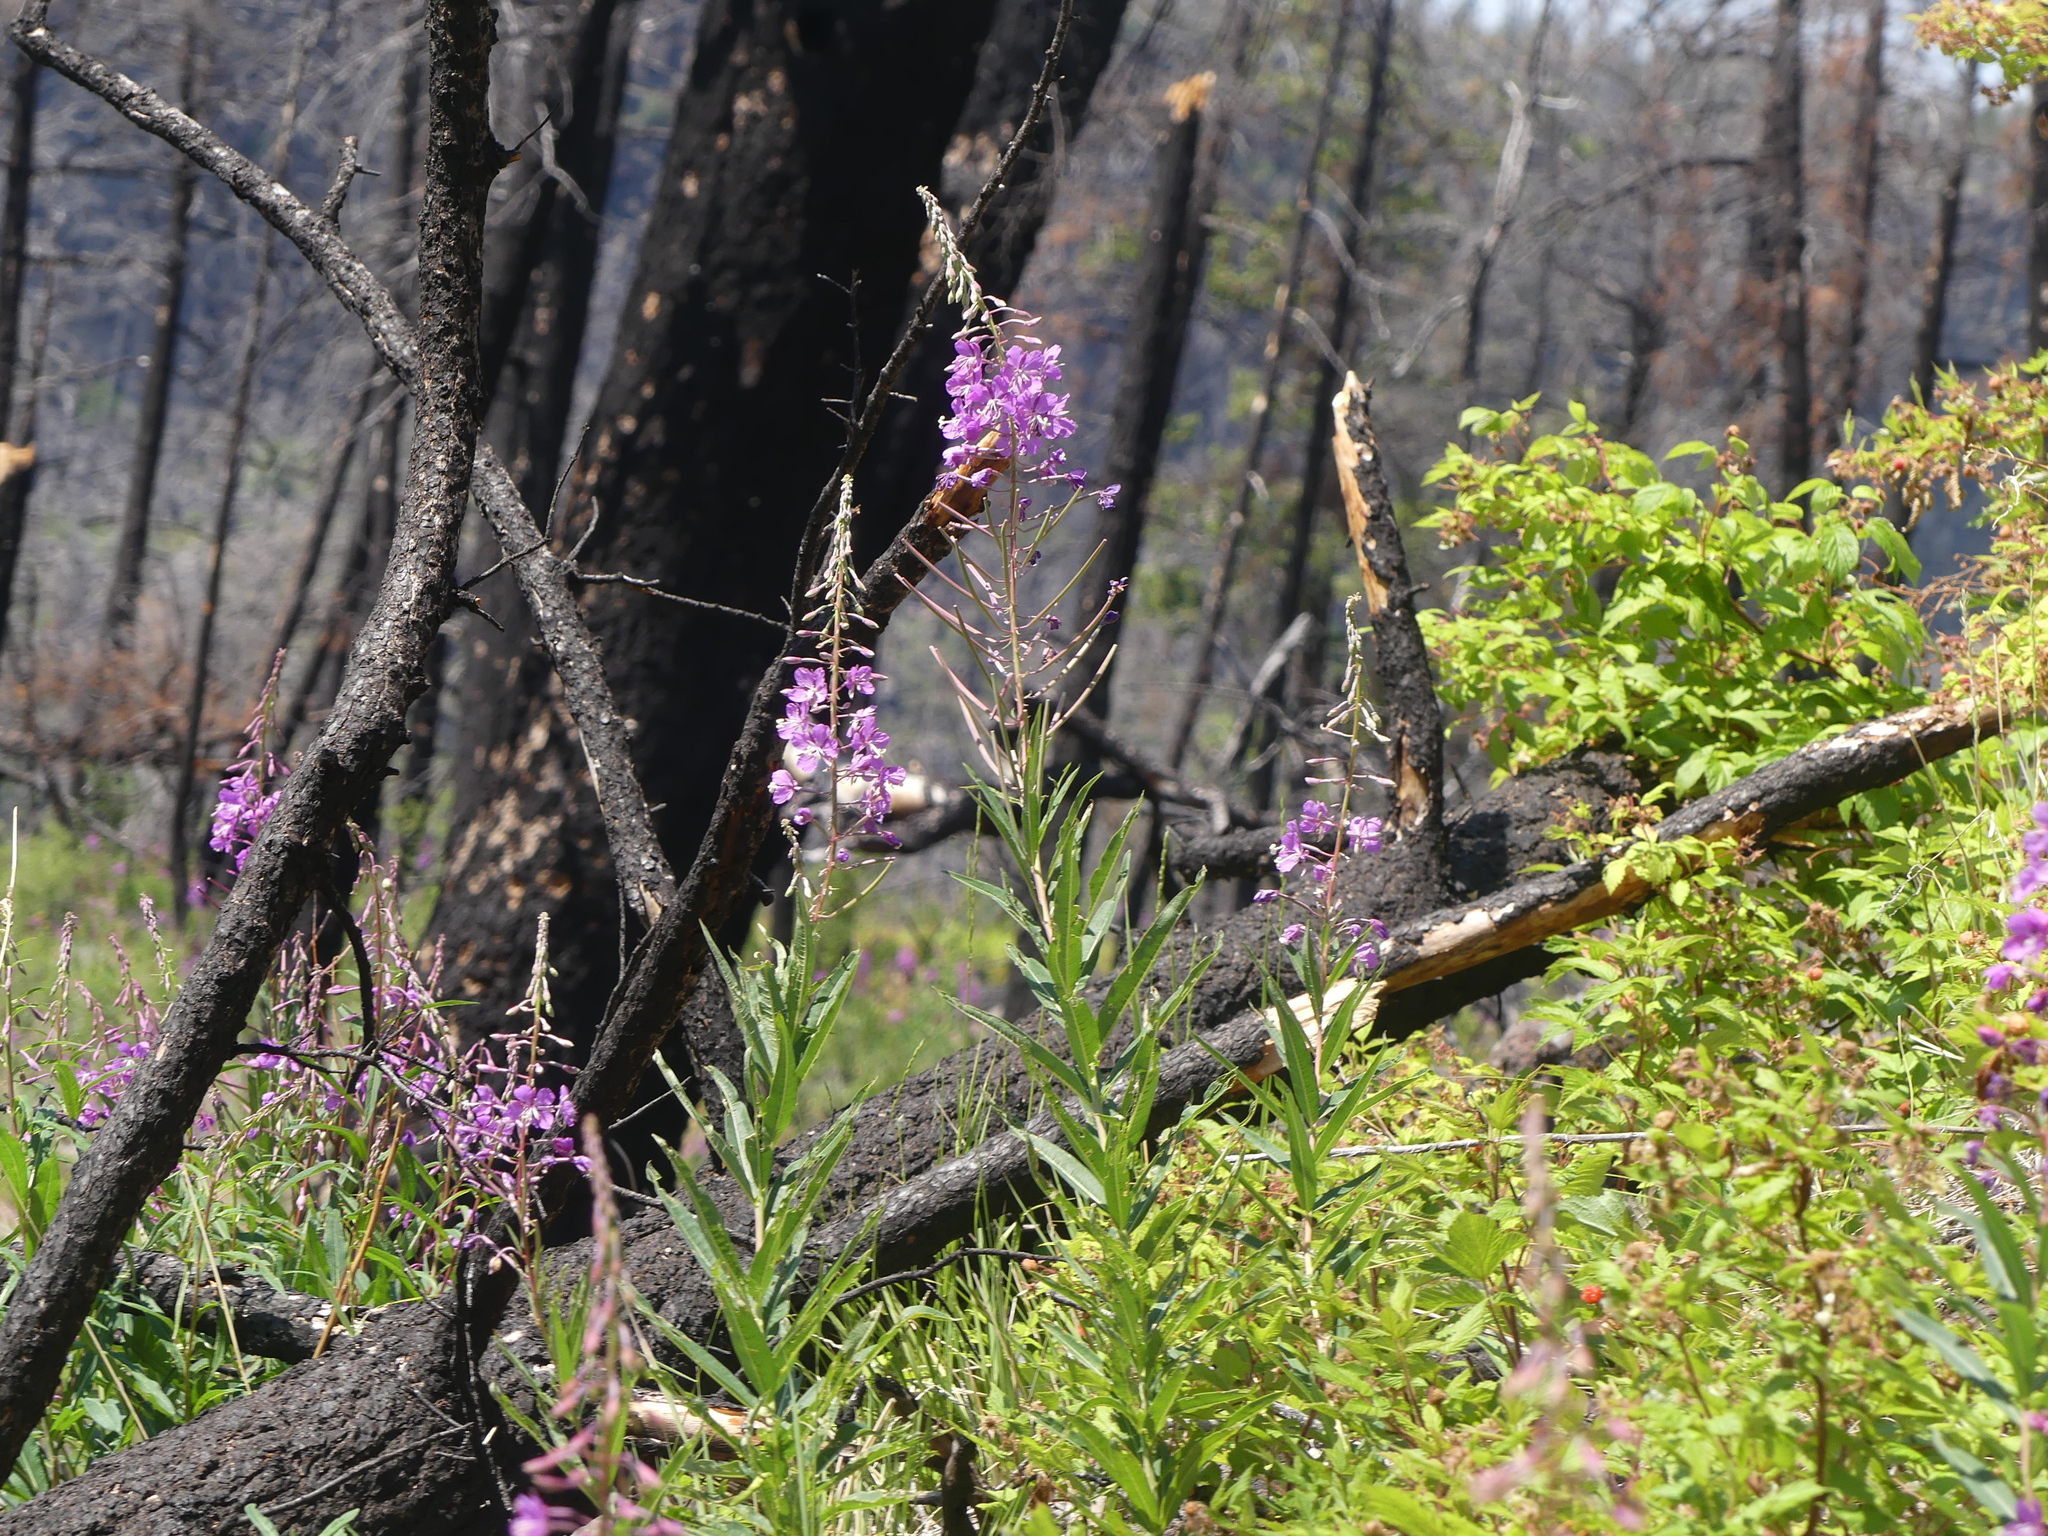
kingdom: Plantae
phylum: Tracheophyta
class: Magnoliopsida
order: Myrtales
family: Onagraceae
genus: Chamaenerion
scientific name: Chamaenerion angustifolium
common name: Fireweed
